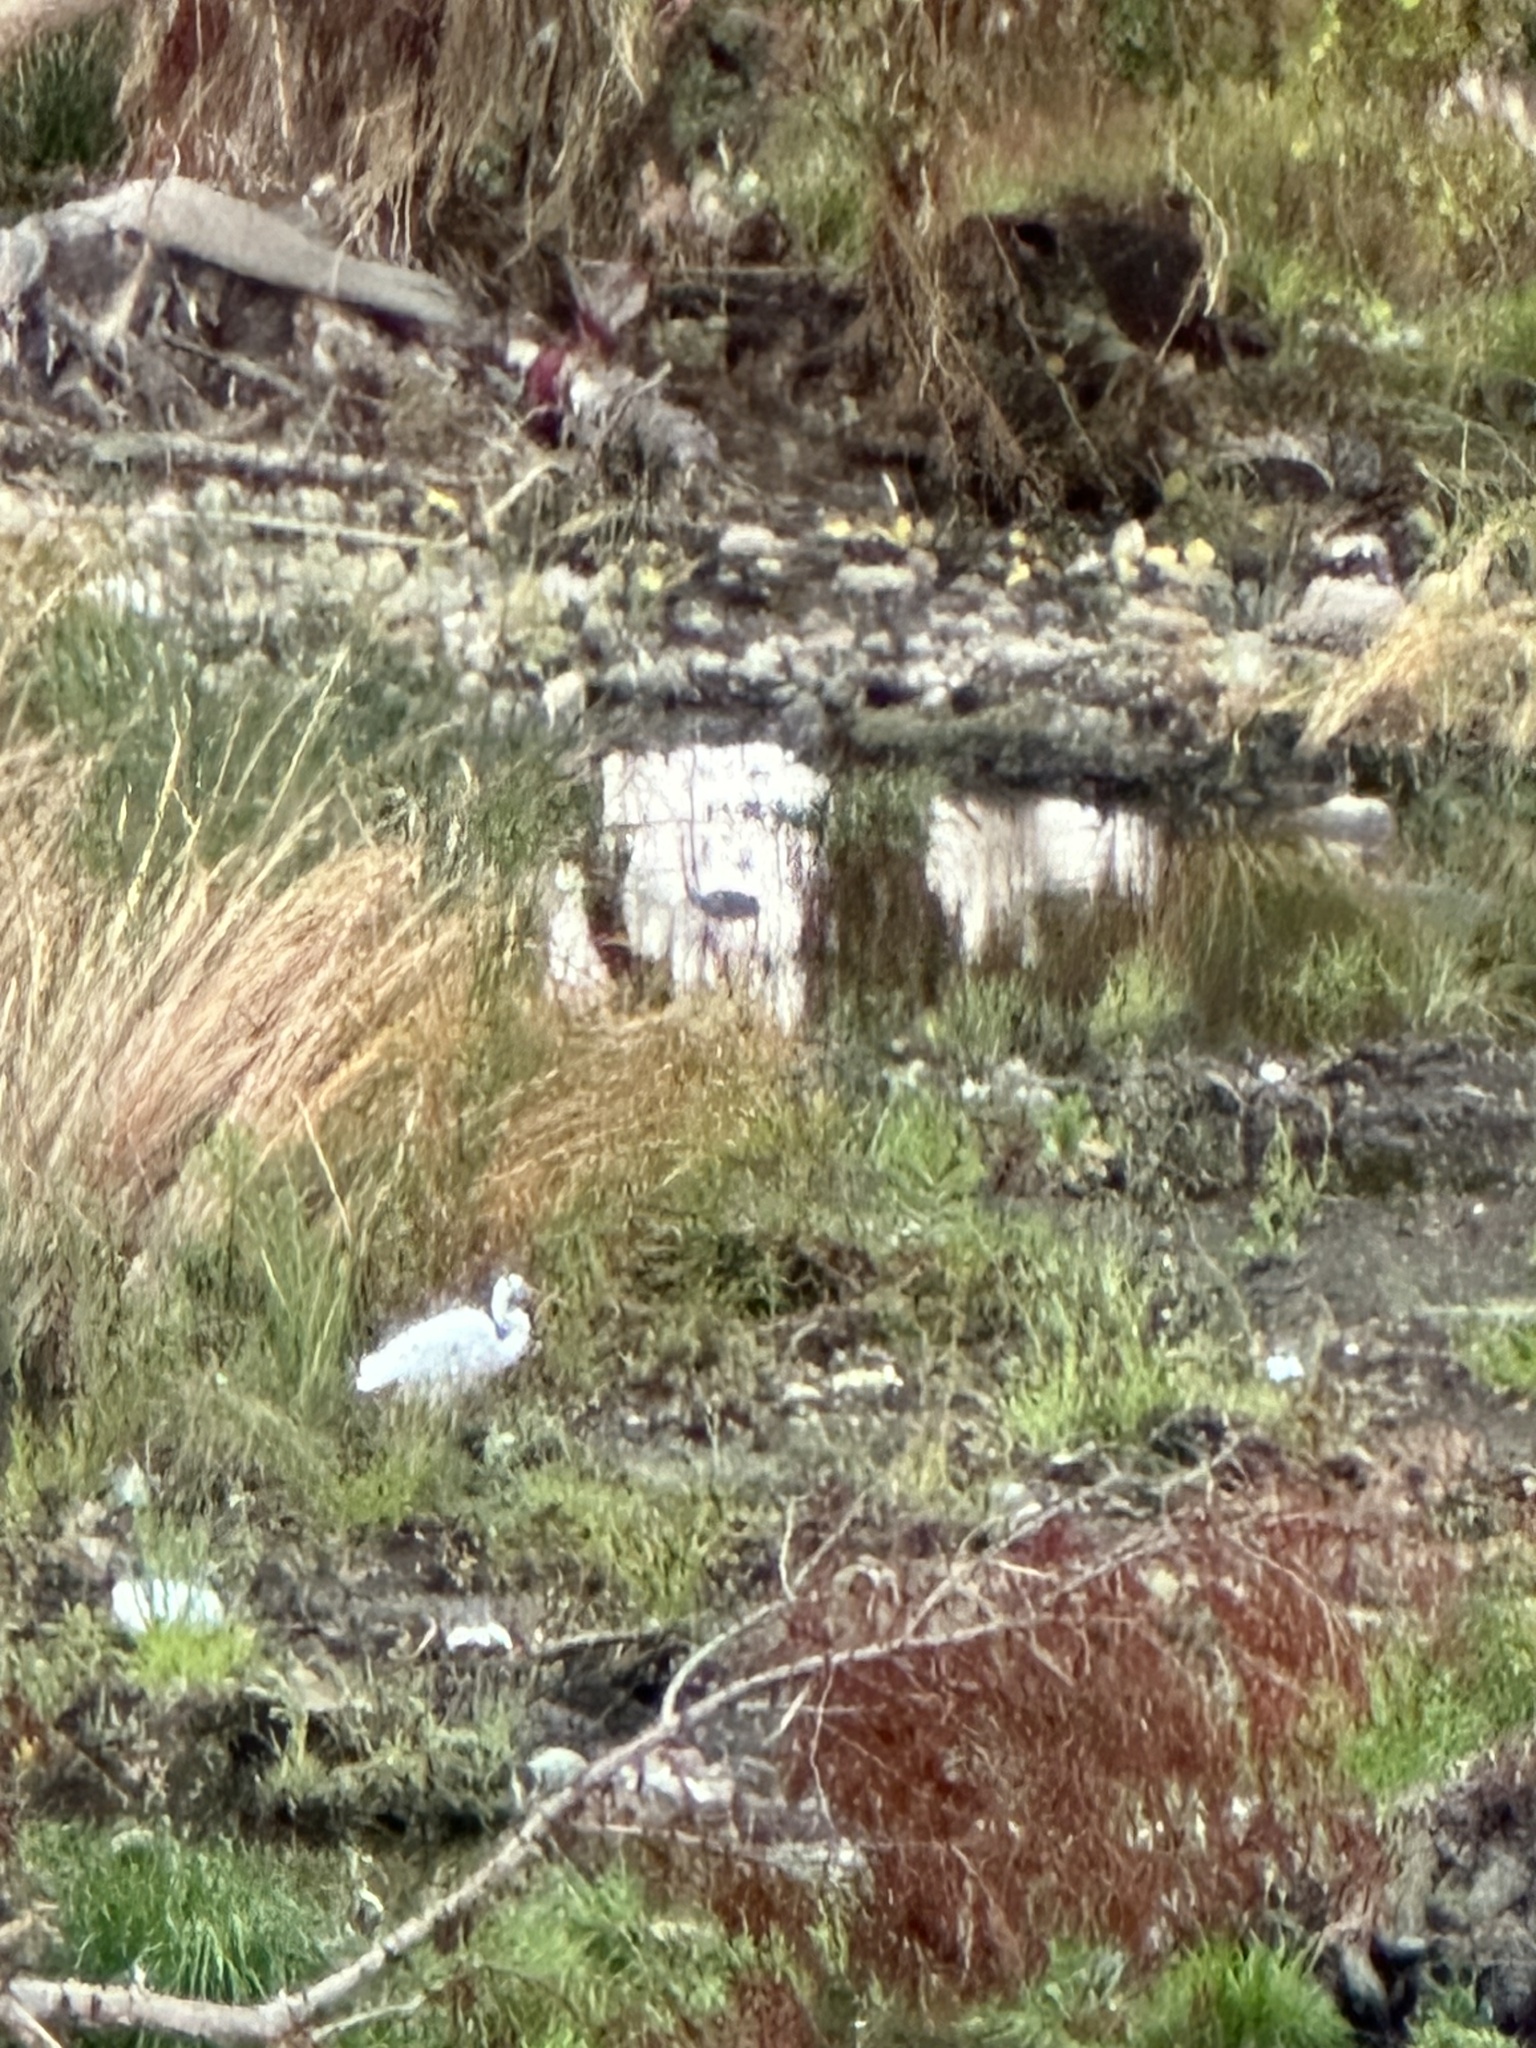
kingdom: Animalia
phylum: Chordata
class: Aves
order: Pelecaniformes
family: Ardeidae
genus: Ardea
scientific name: Ardea alba
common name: Great egret
